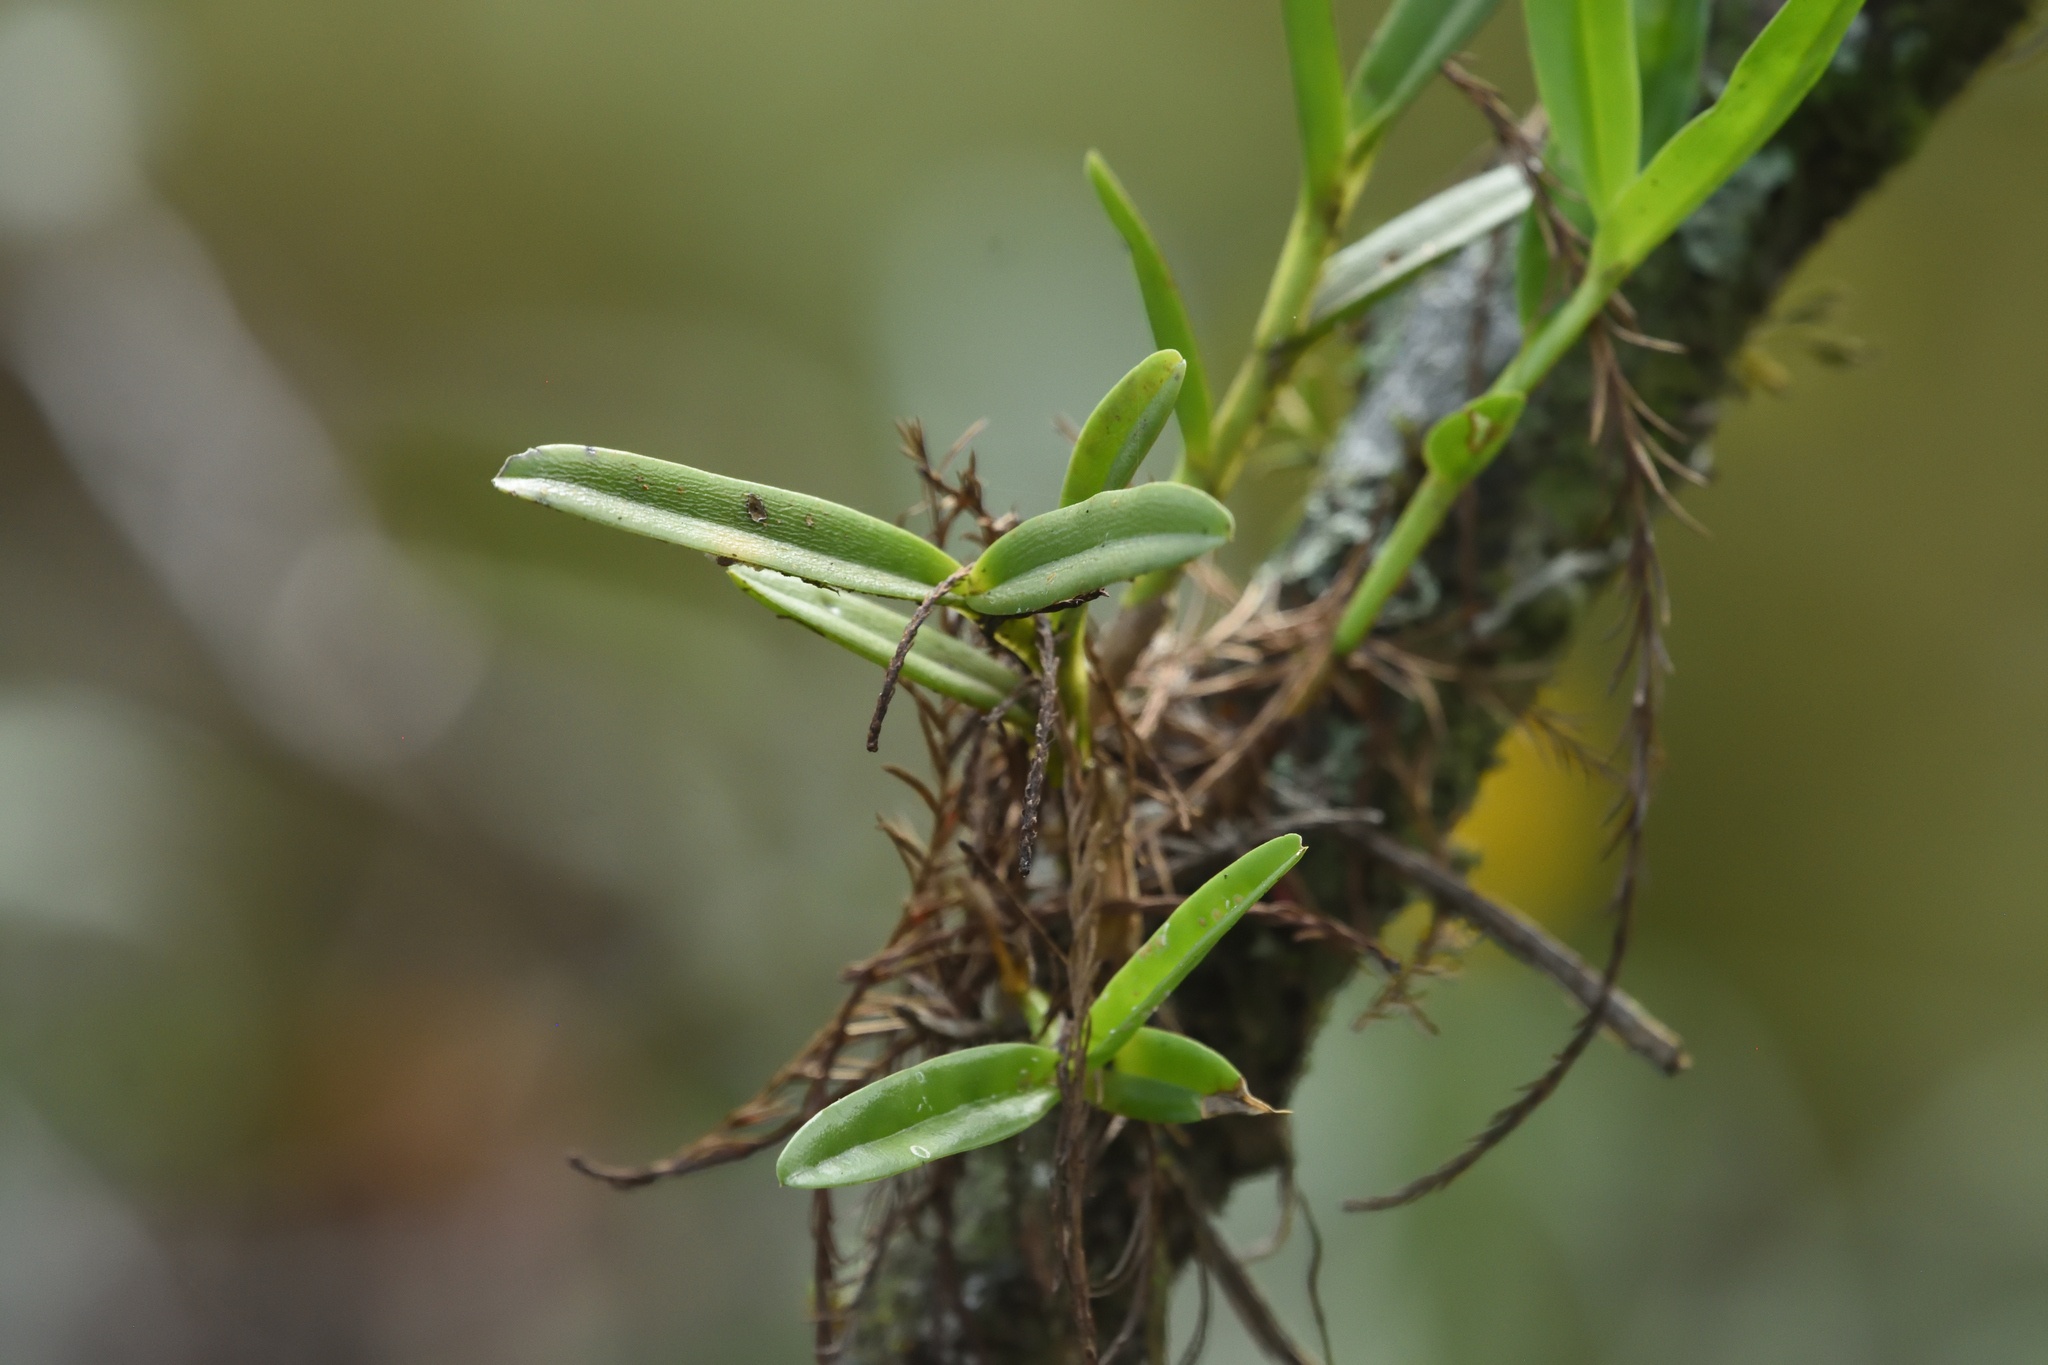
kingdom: Plantae
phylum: Tracheophyta
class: Liliopsida
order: Asparagales
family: Orchidaceae
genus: Epidendrum
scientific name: Epidendrum rigidum
